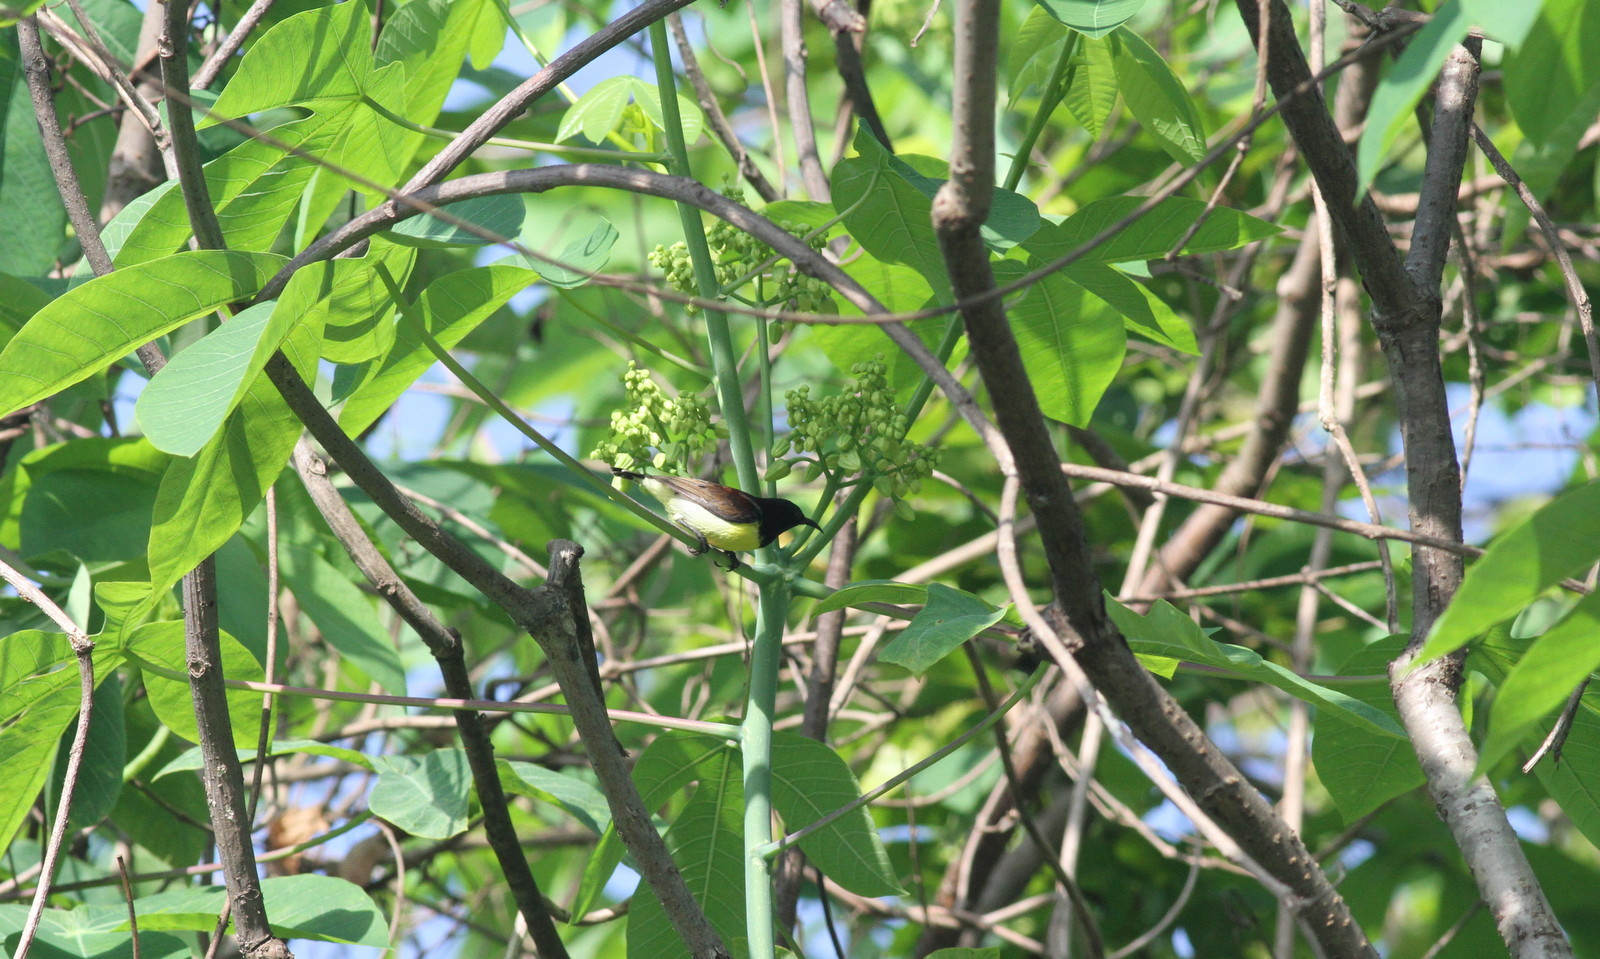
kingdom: Animalia
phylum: Chordata
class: Aves
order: Passeriformes
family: Nectariniidae
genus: Leptocoma
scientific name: Leptocoma zeylonica
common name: Purple-rumped sunbird
